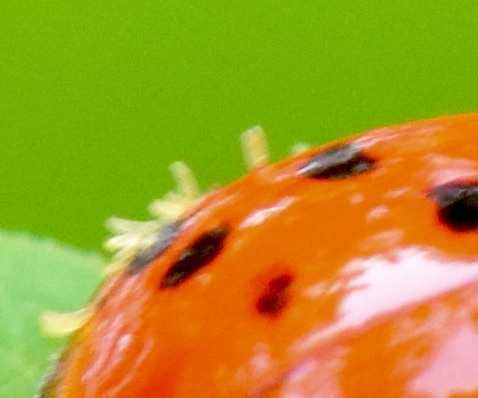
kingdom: Fungi
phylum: Ascomycota
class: Laboulbeniomycetes
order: Laboulbeniales
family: Laboulbeniaceae
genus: Hesperomyces
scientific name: Hesperomyces harmoniae
